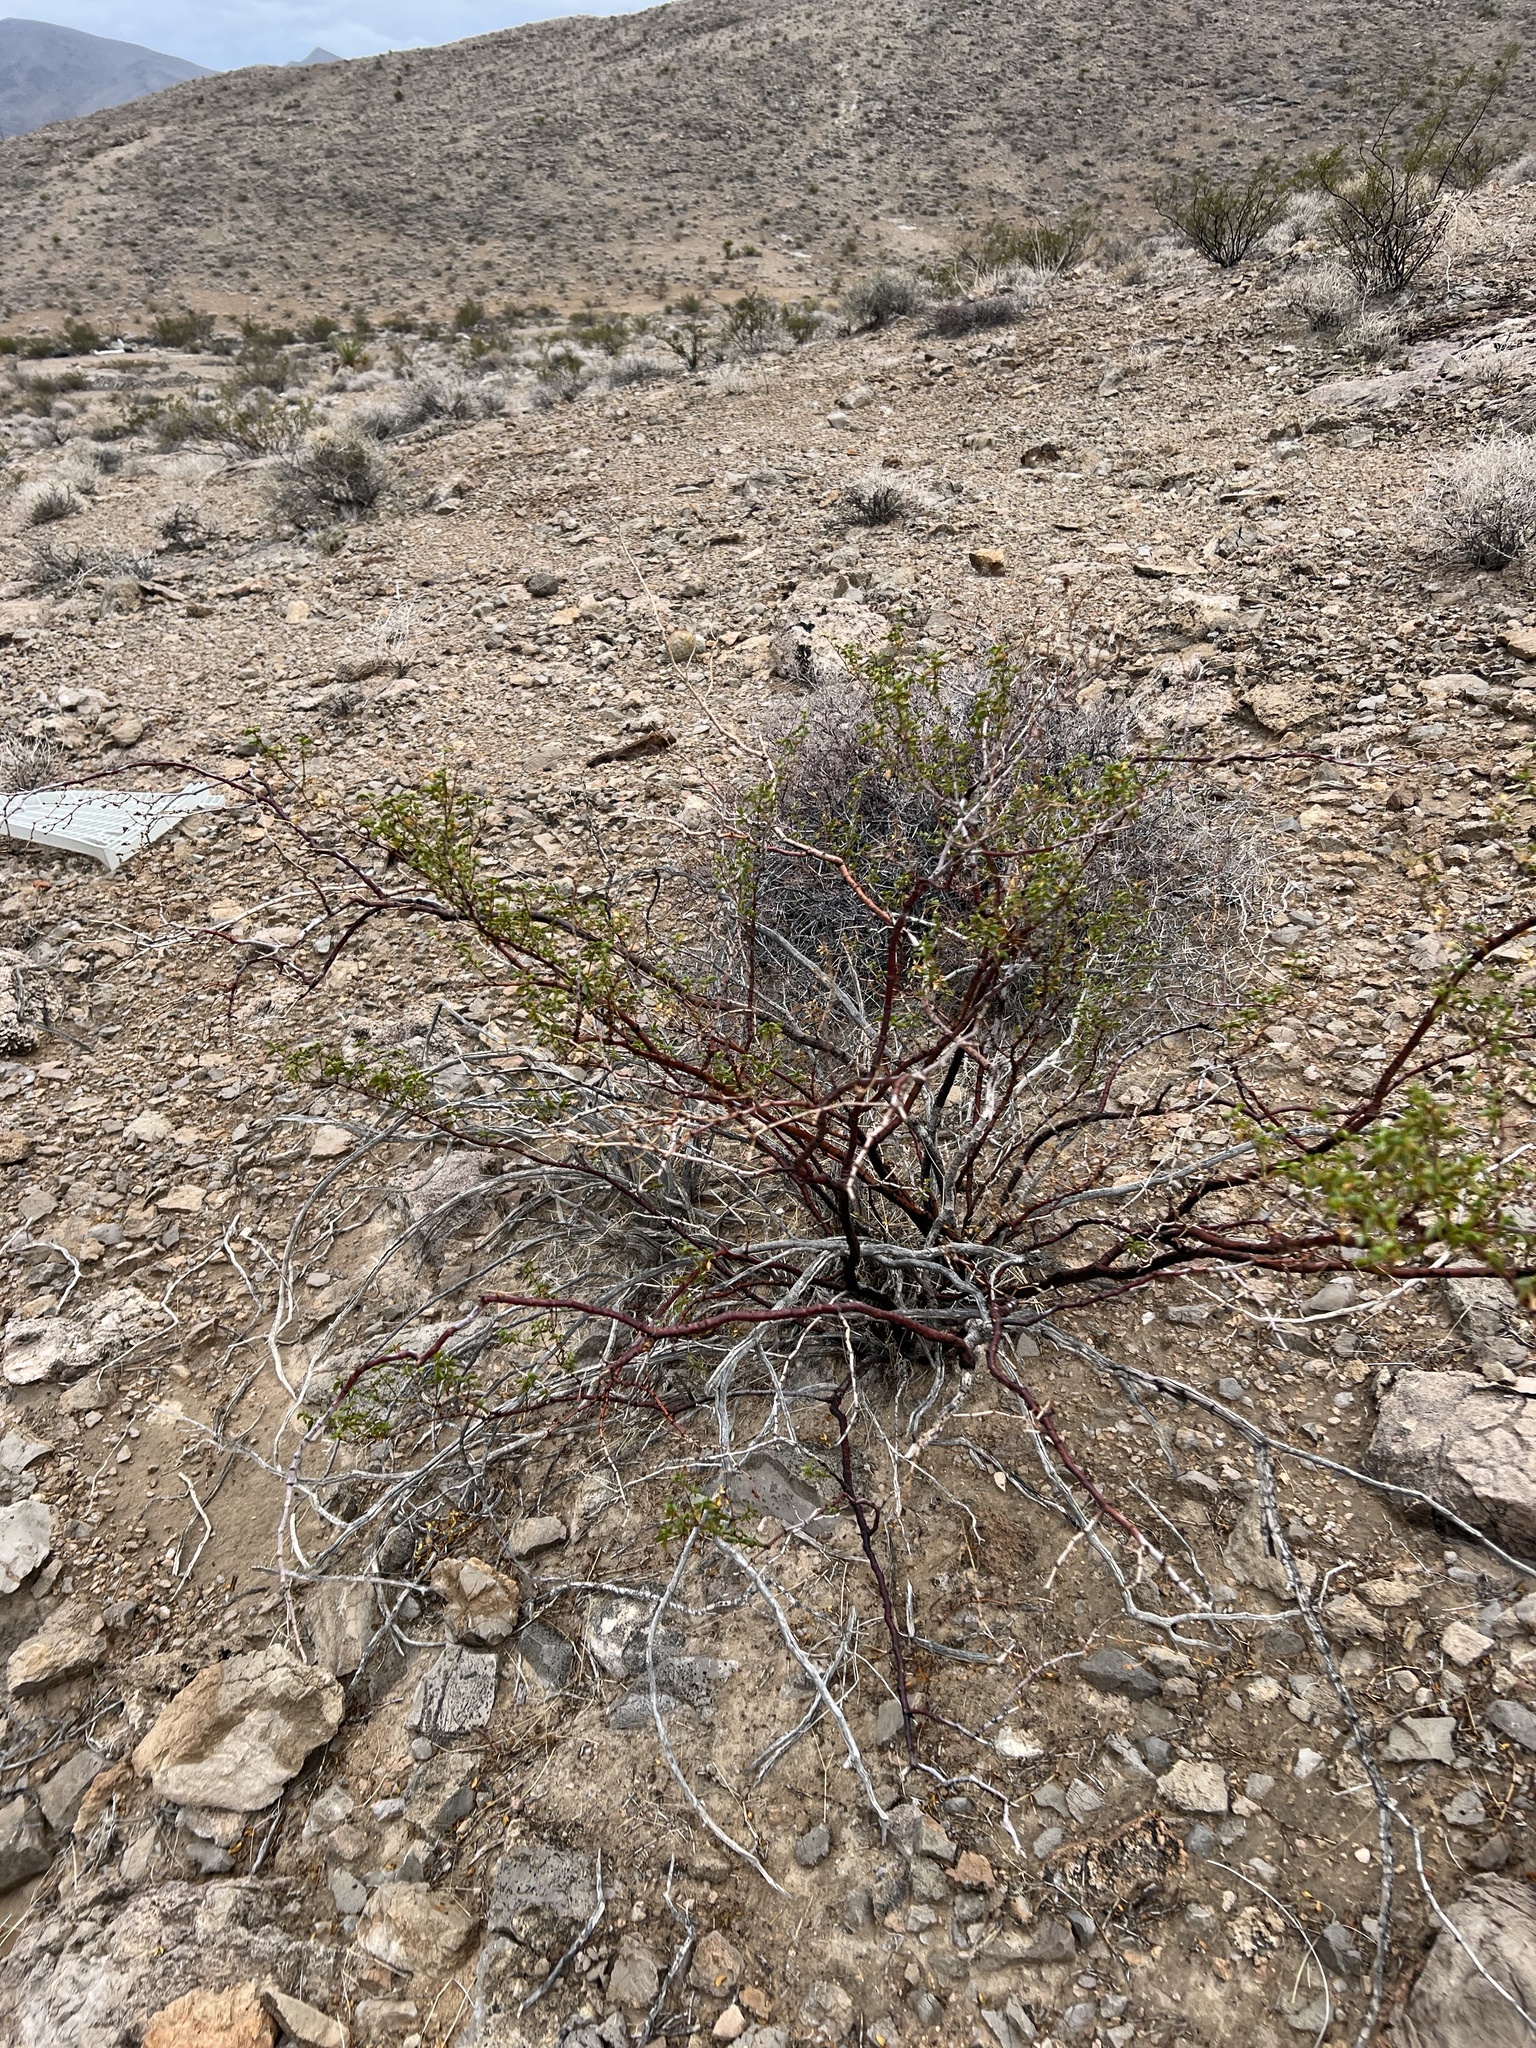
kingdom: Plantae
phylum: Tracheophyta
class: Magnoliopsida
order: Zygophyllales
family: Zygophyllaceae
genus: Larrea
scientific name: Larrea tridentata
